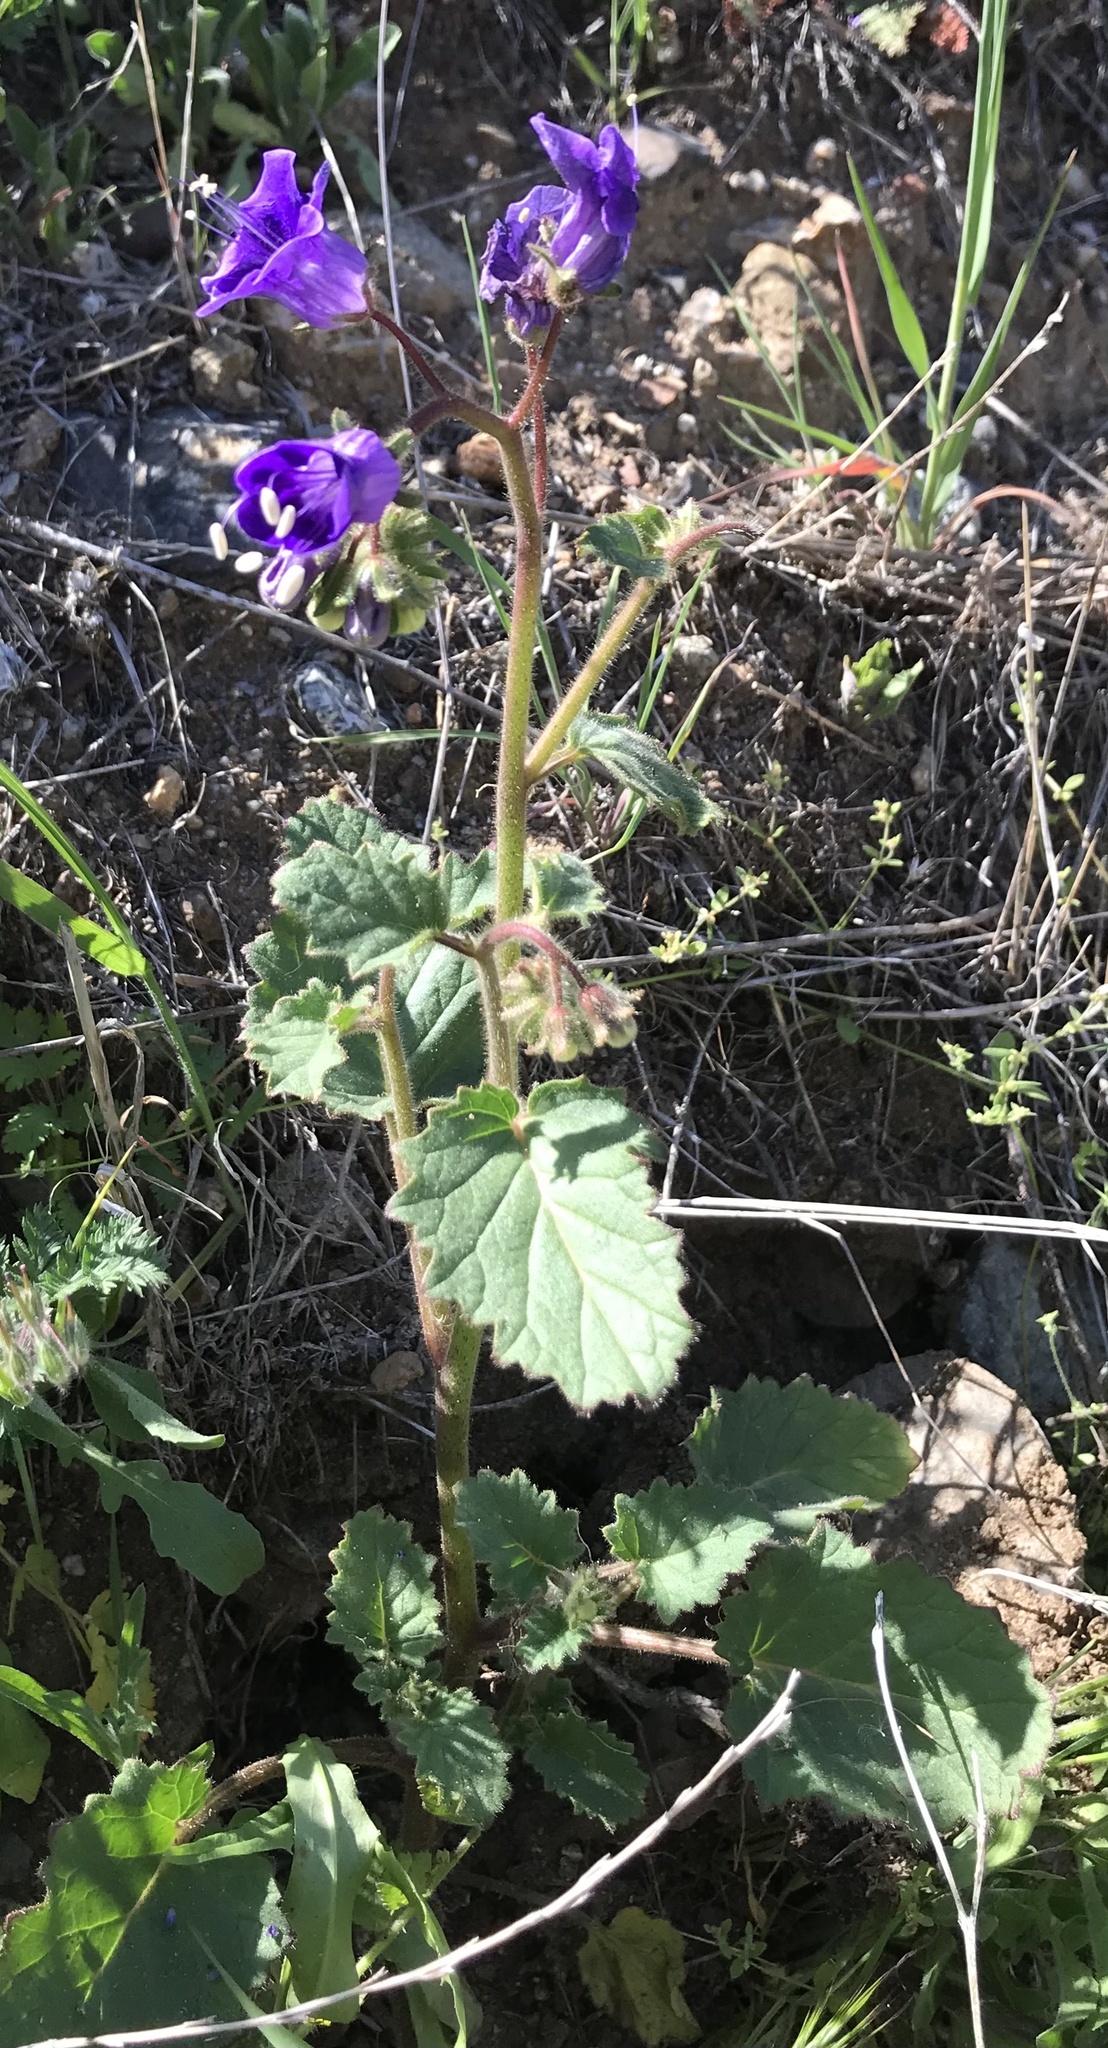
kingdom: Plantae
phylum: Tracheophyta
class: Magnoliopsida
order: Boraginales
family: Hydrophyllaceae
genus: Phacelia
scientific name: Phacelia minor
